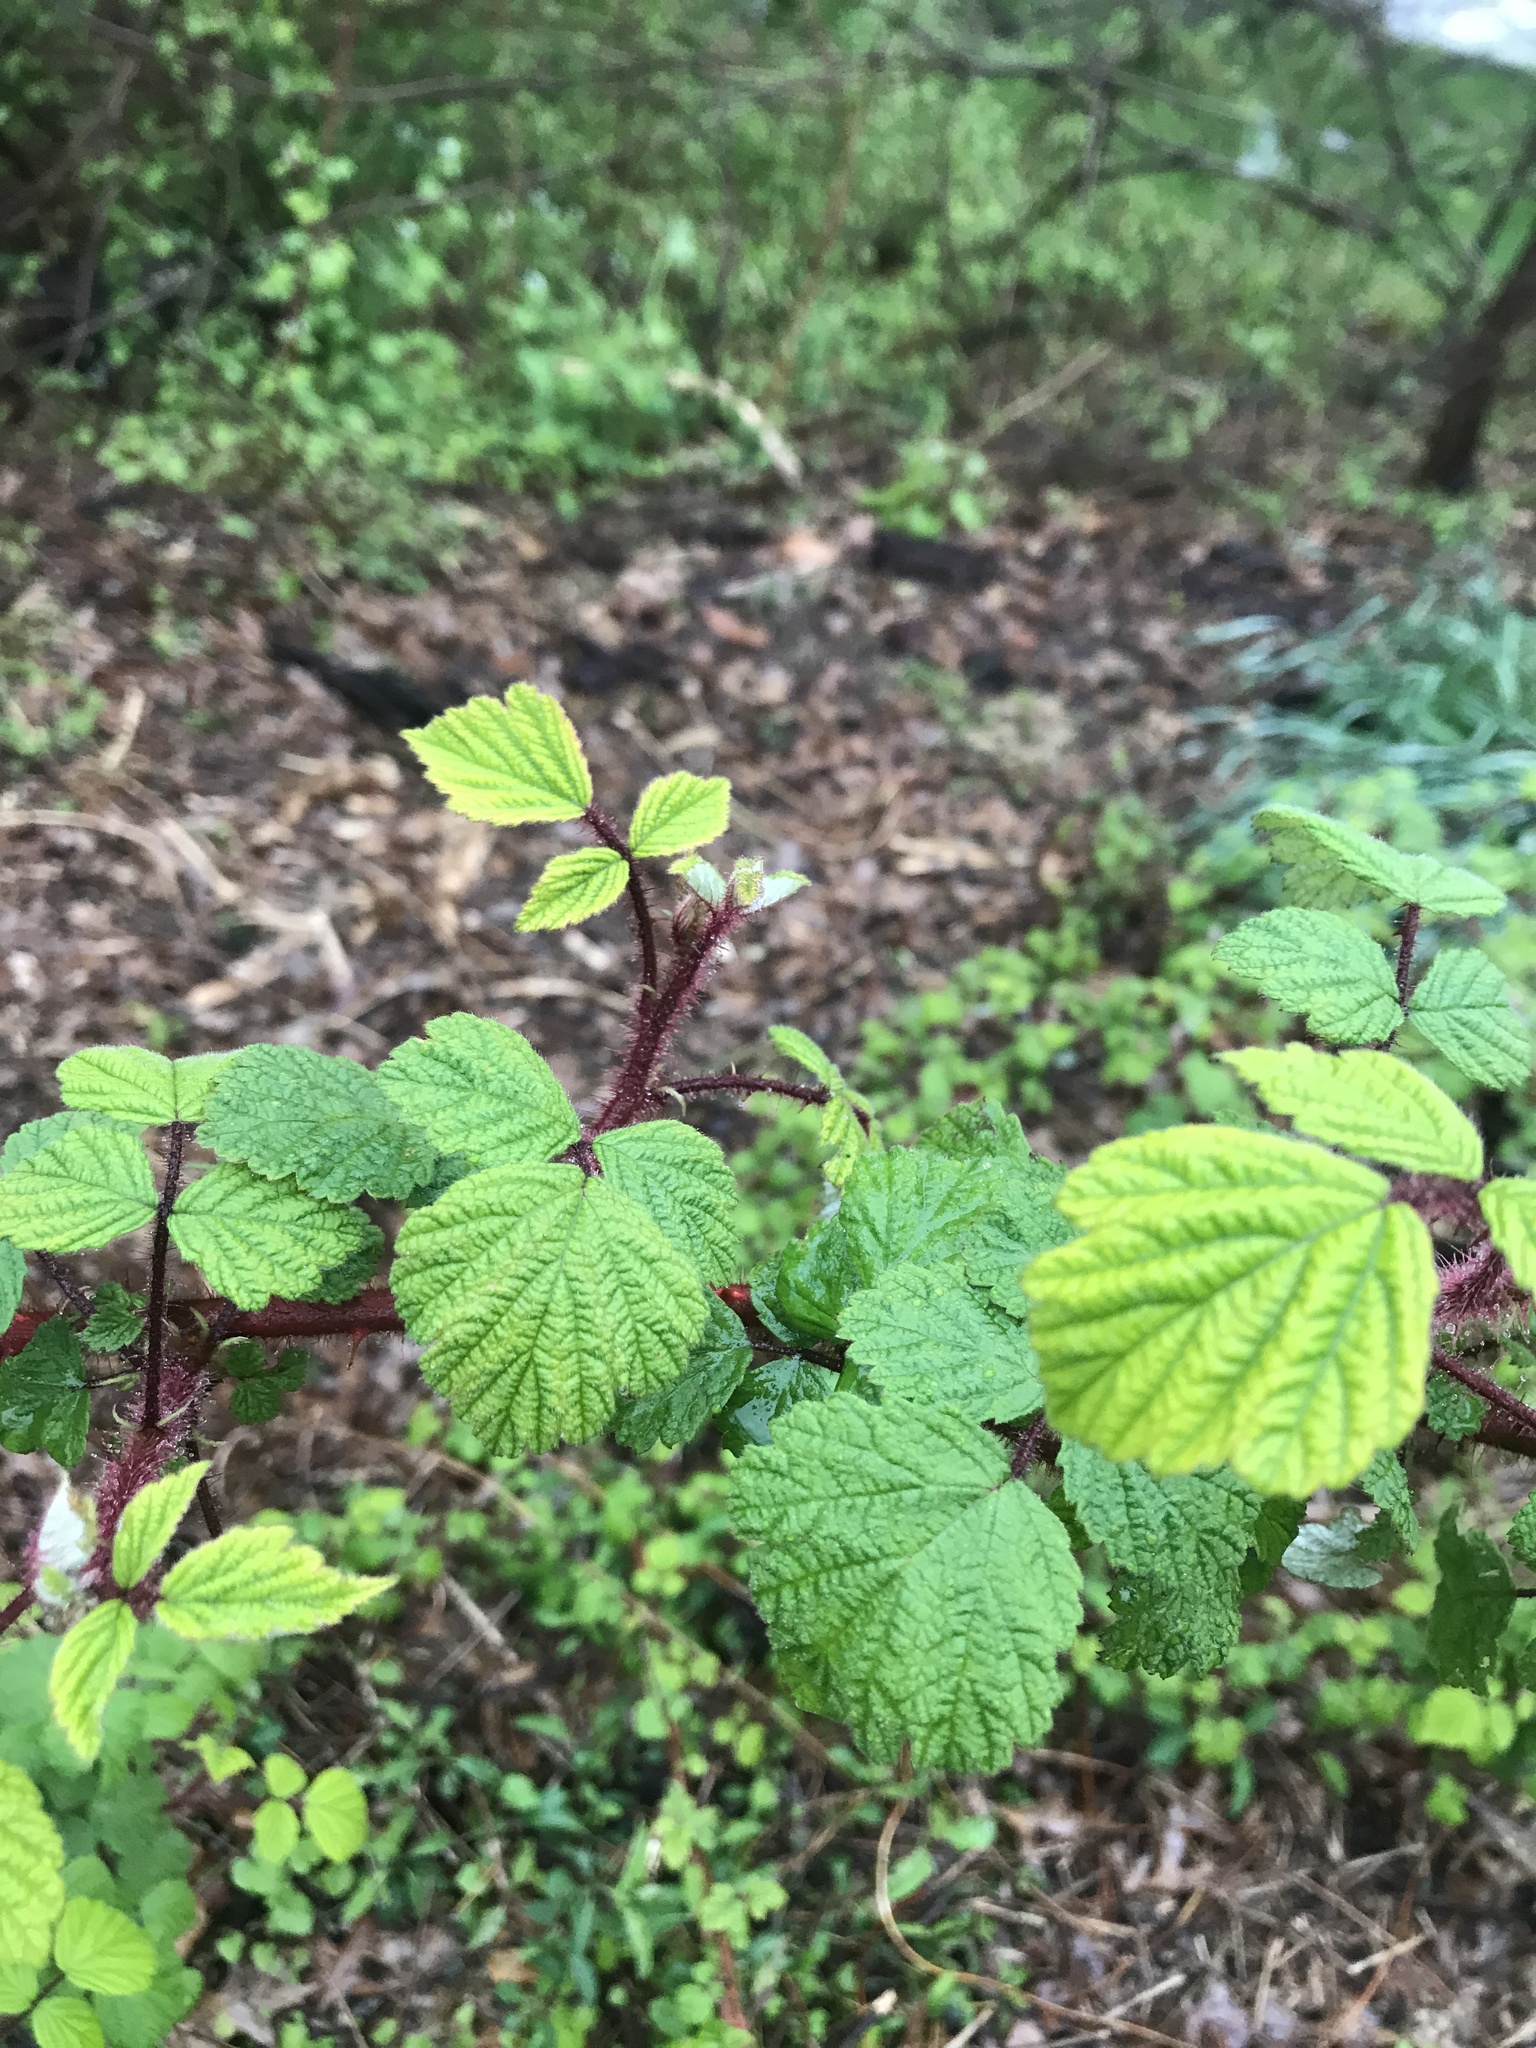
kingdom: Plantae
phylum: Tracheophyta
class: Magnoliopsida
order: Rosales
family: Rosaceae
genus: Rubus
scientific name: Rubus phoenicolasius
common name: Japanese wineberry
